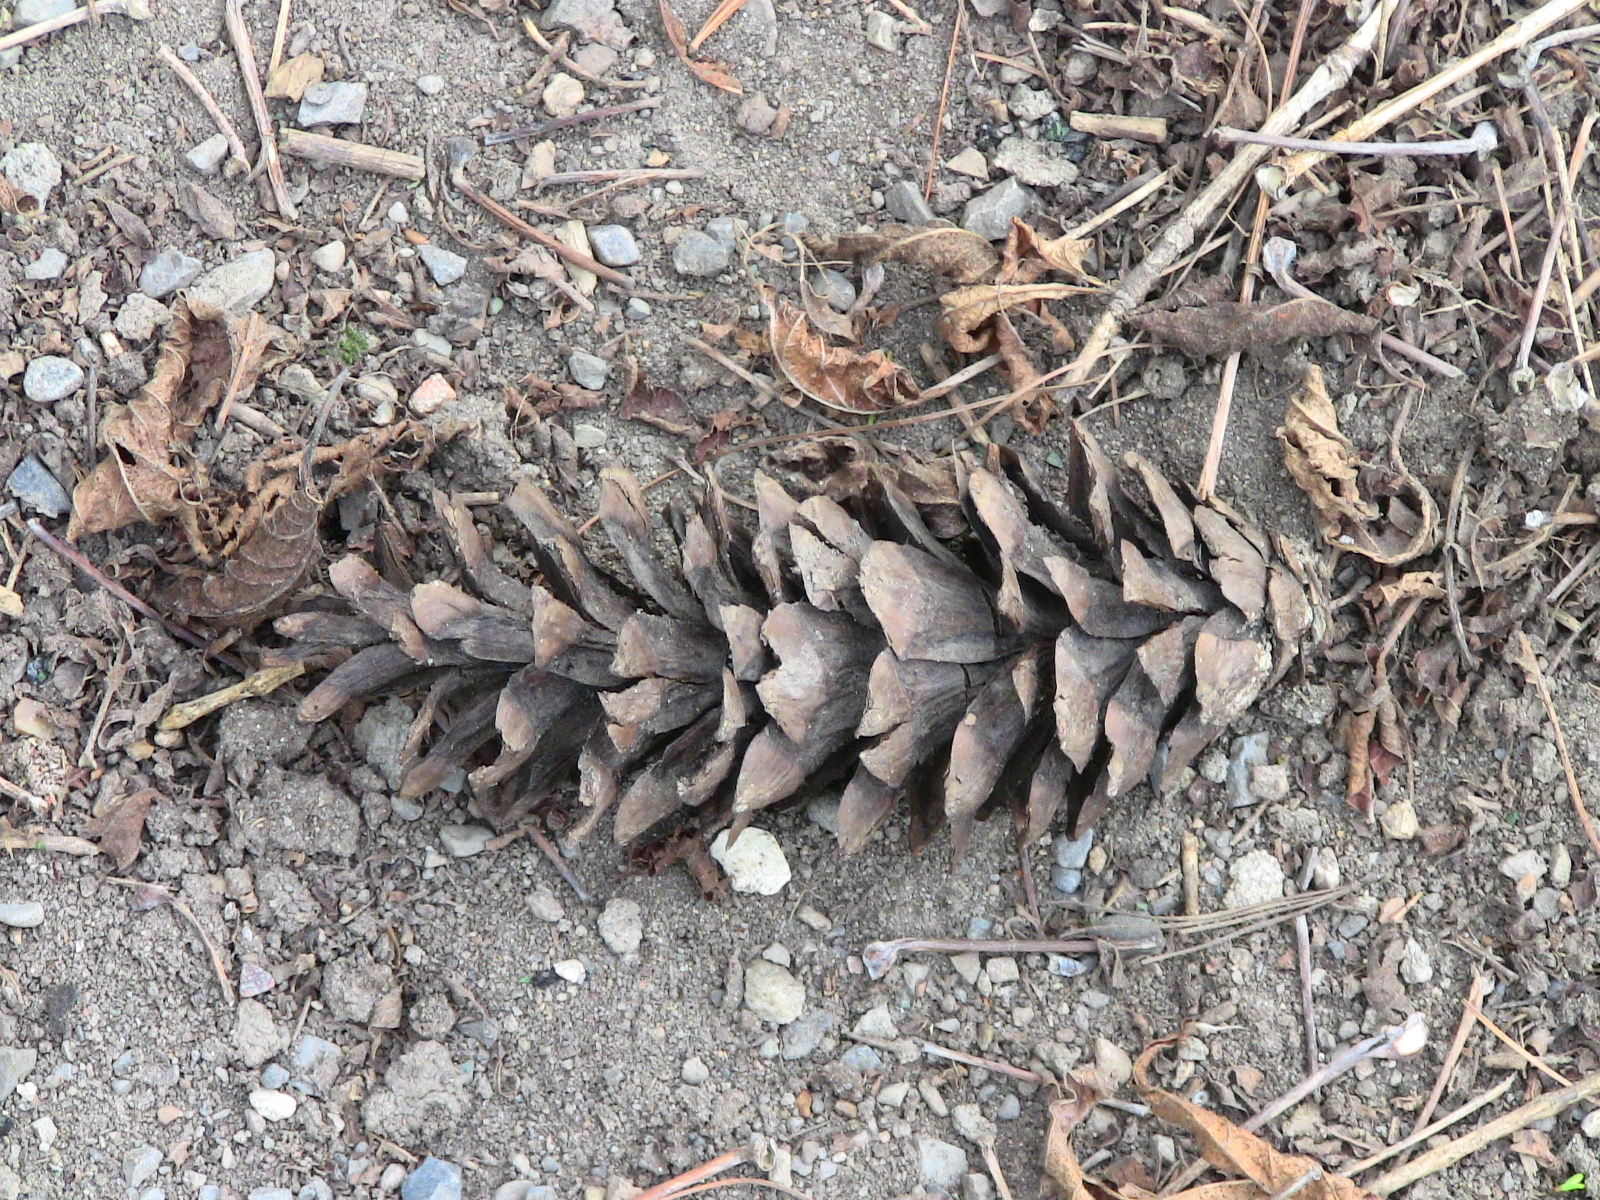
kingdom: Plantae
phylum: Tracheophyta
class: Pinopsida
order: Pinales
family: Pinaceae
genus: Pinus
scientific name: Pinus strobus
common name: Weymouth pine
